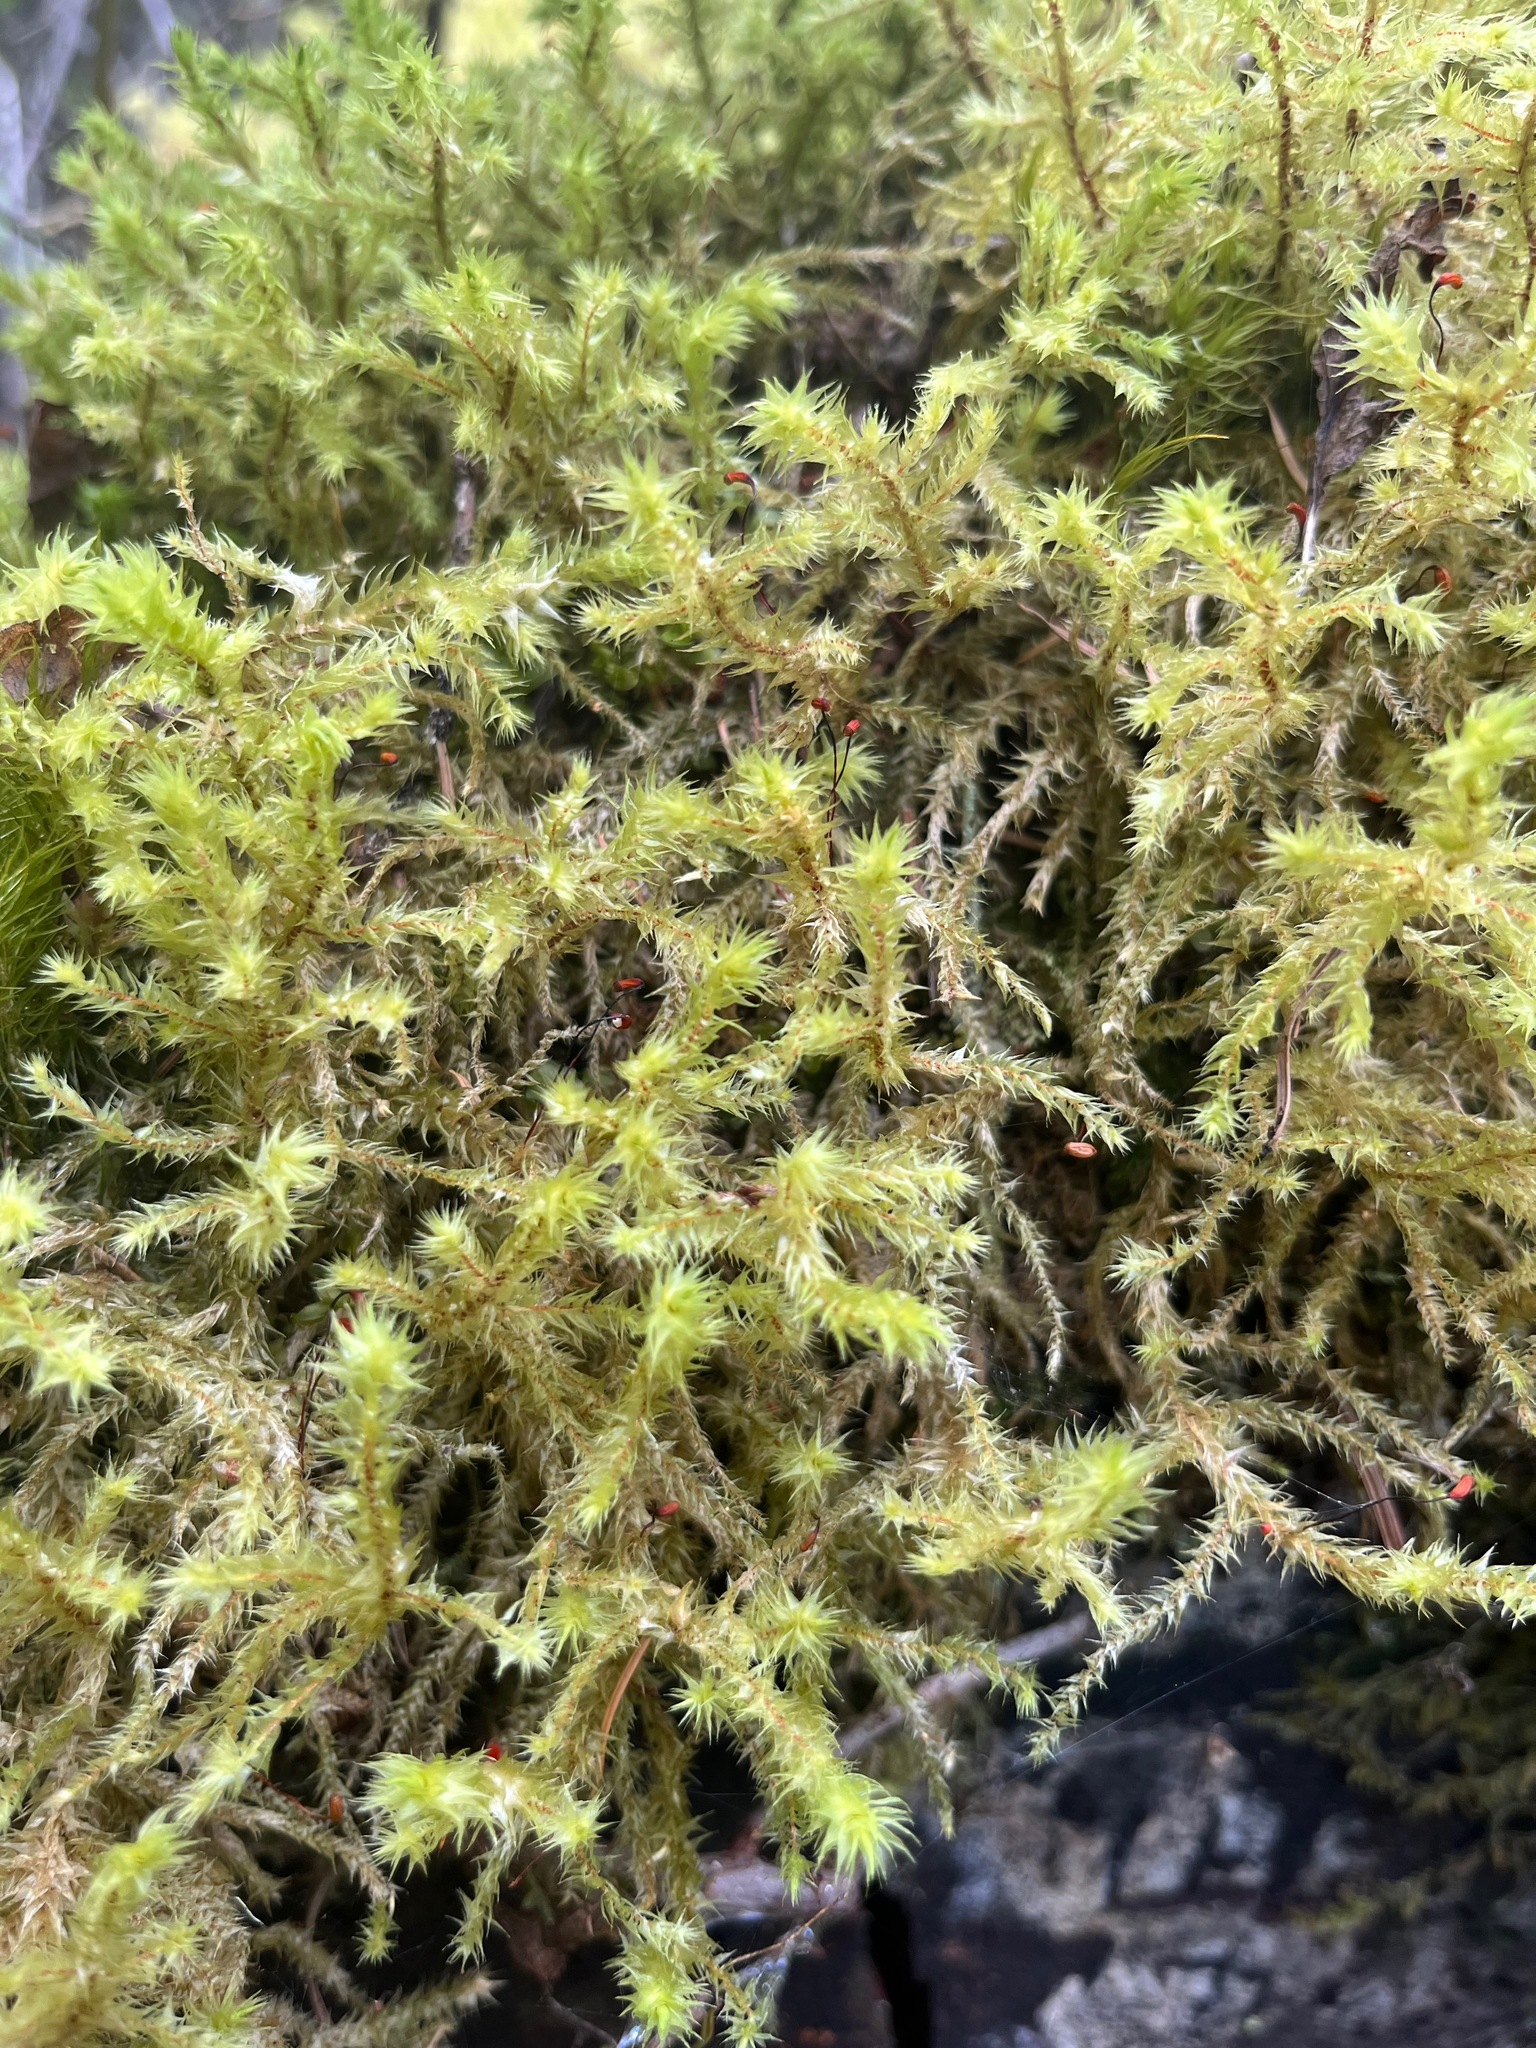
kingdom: Plantae
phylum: Bryophyta
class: Bryopsida
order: Hypnales
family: Hylocomiaceae
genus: Hylocomiadelphus
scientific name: Hylocomiadelphus triquetrus
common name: Rough goose neck moss
